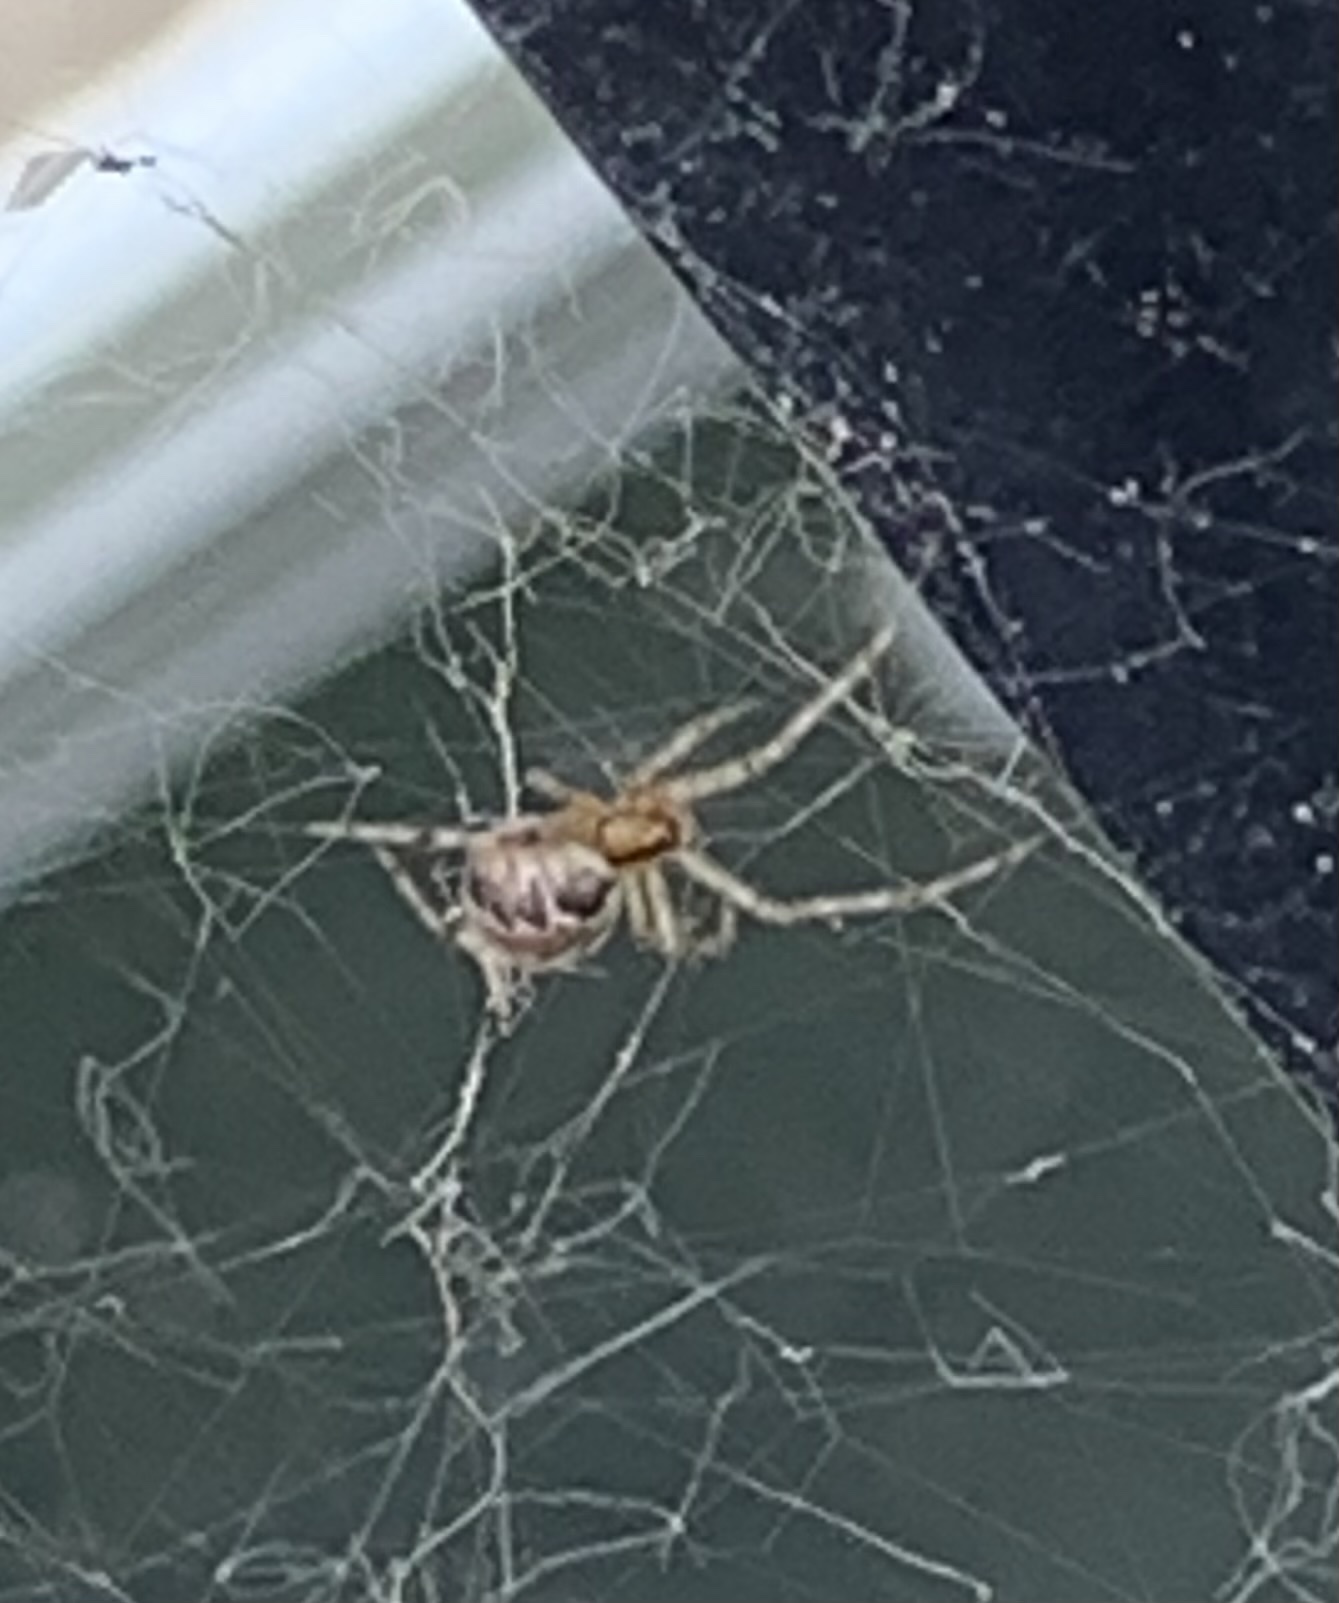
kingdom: Animalia
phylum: Arthropoda
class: Arachnida
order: Araneae
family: Theridiidae
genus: Theridion
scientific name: Theridion pictum
